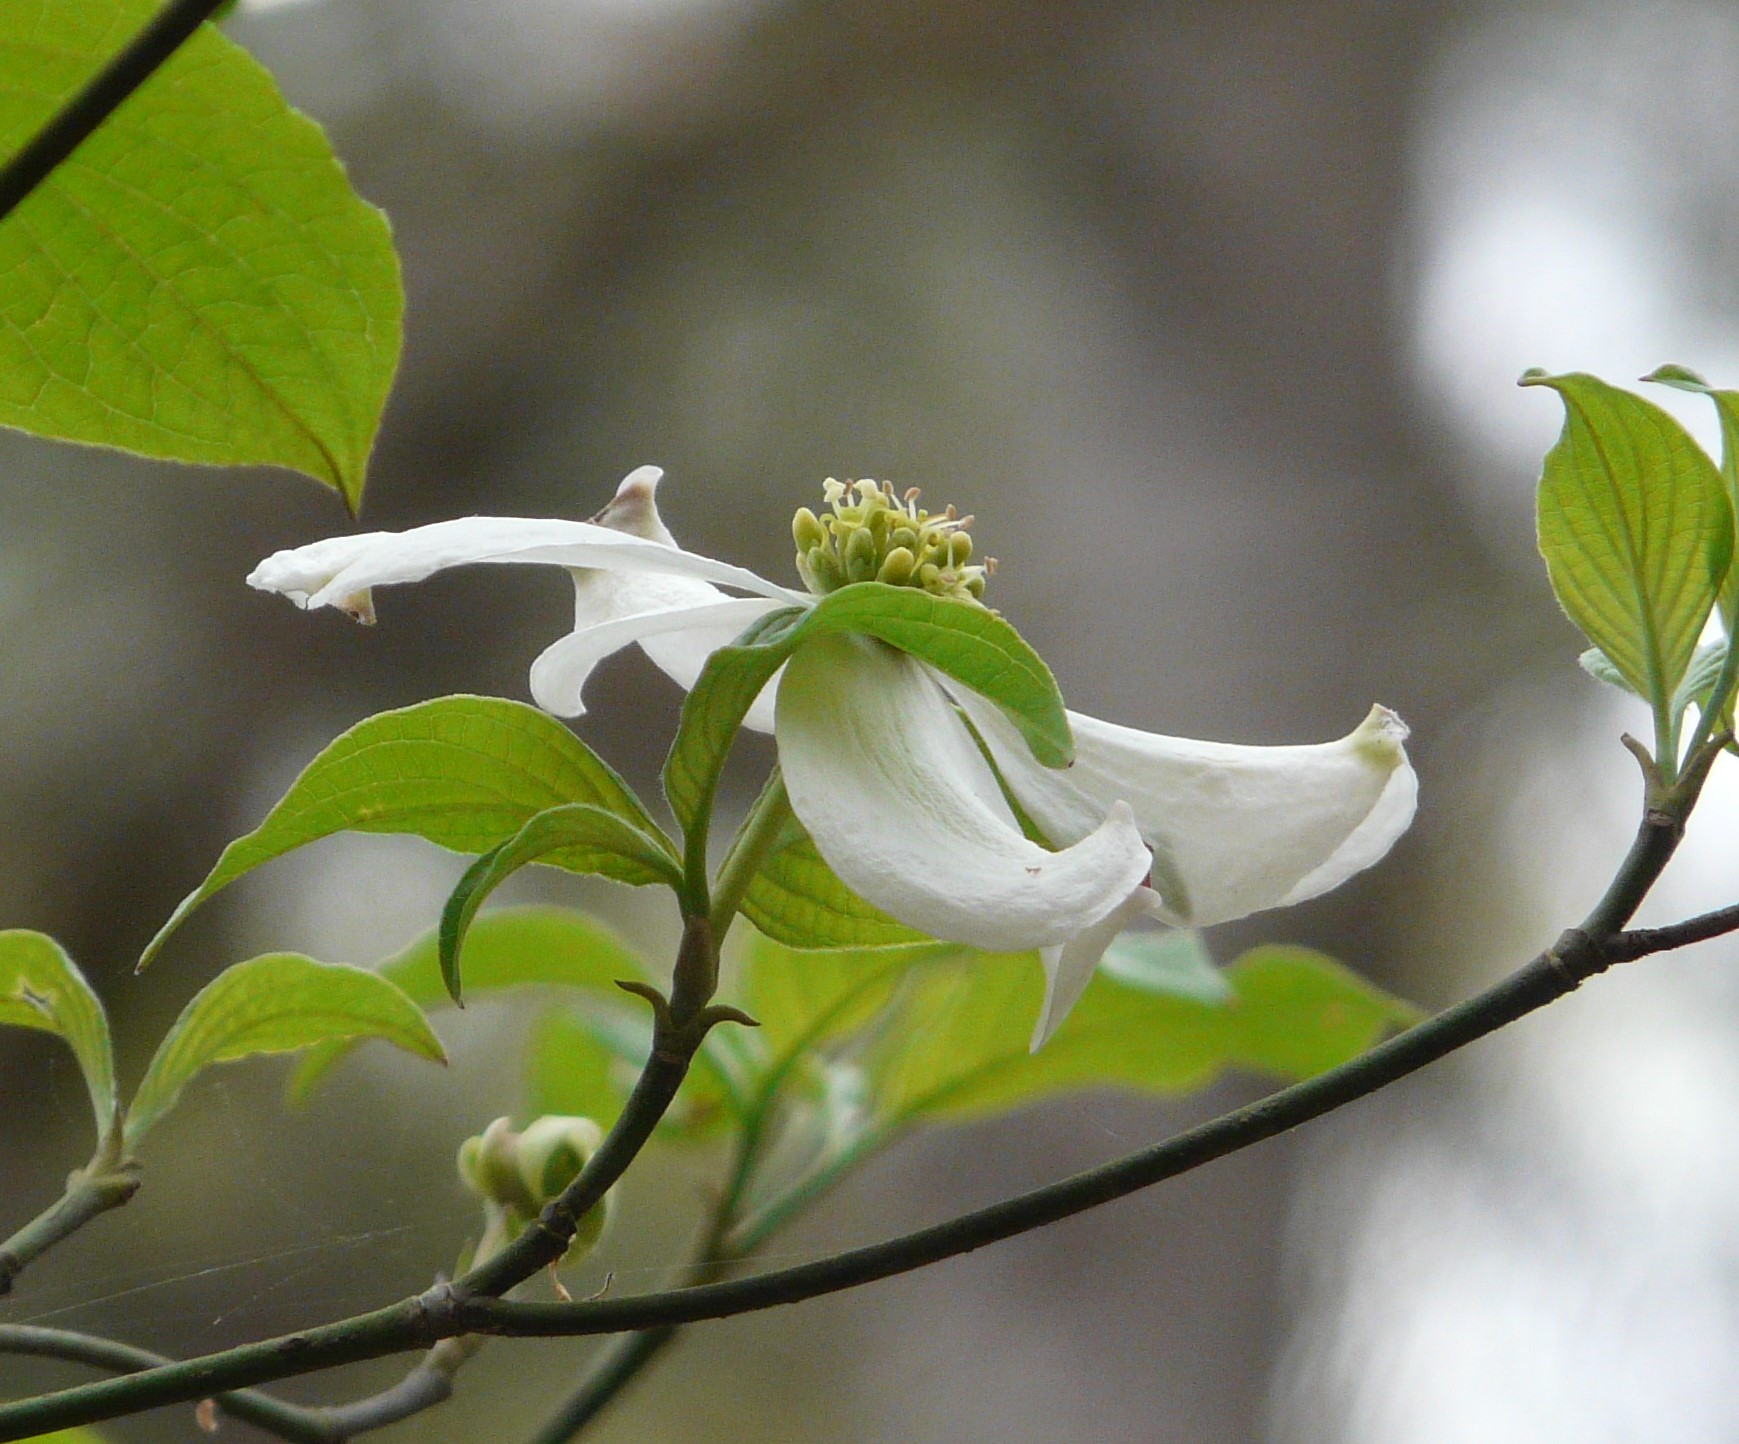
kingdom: Plantae
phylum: Tracheophyta
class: Magnoliopsida
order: Cornales
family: Cornaceae
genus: Cornus
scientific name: Cornus florida
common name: Flowering dogwood
